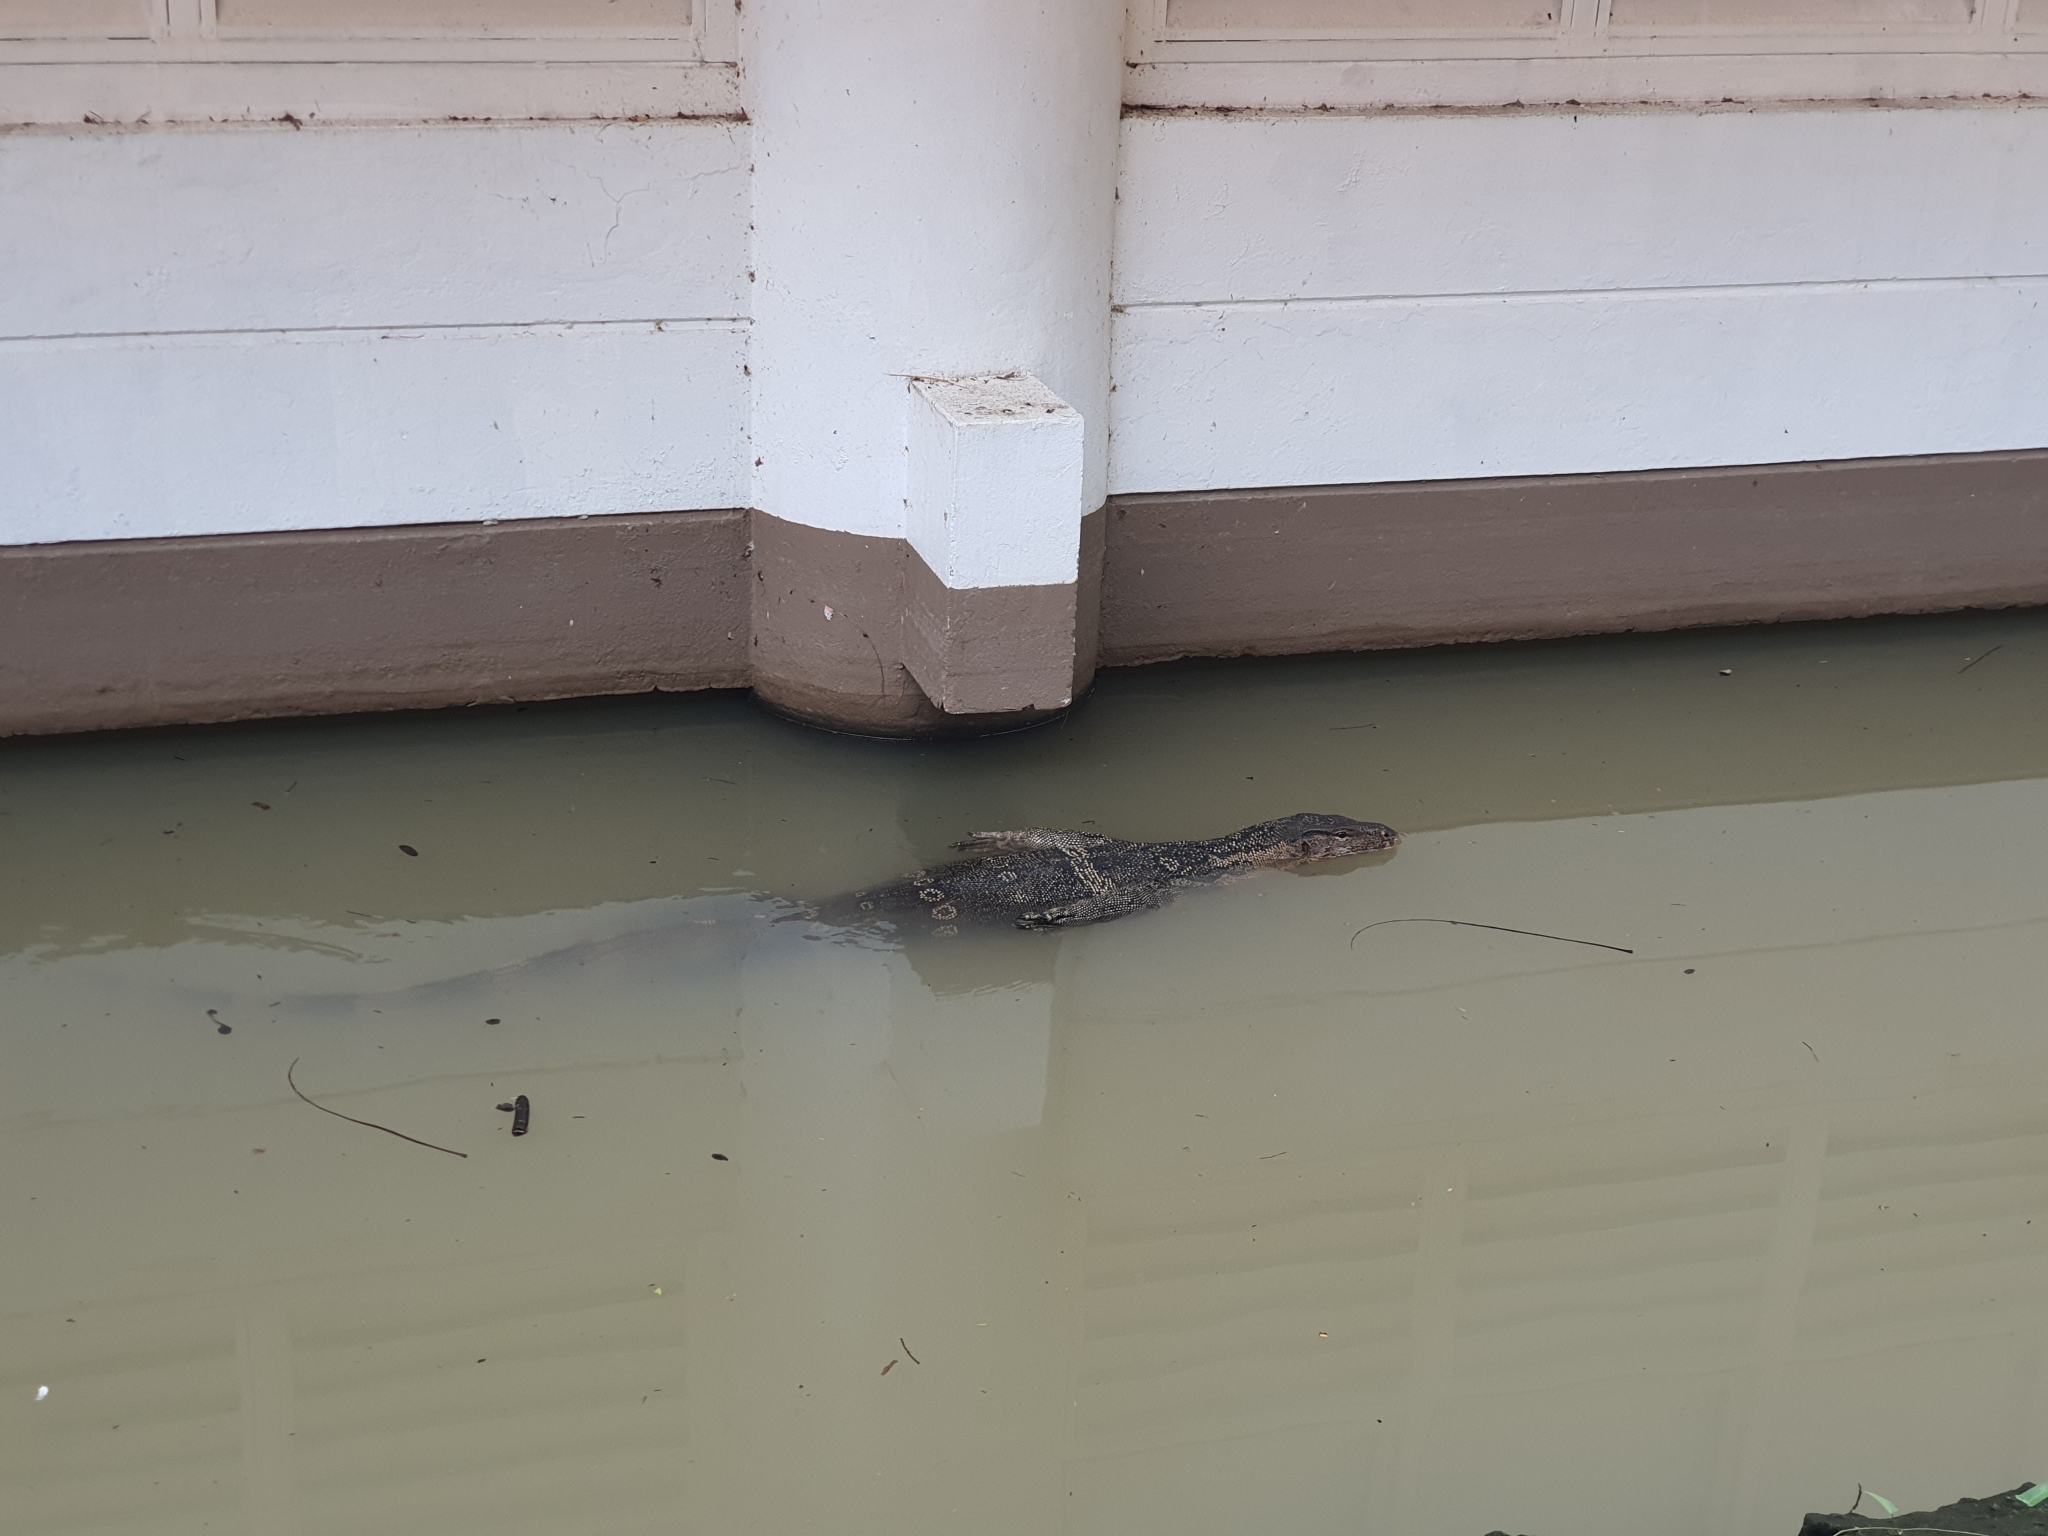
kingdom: Animalia
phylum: Chordata
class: Squamata
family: Varanidae
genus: Varanus
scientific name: Varanus salvator
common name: Common water monitor
